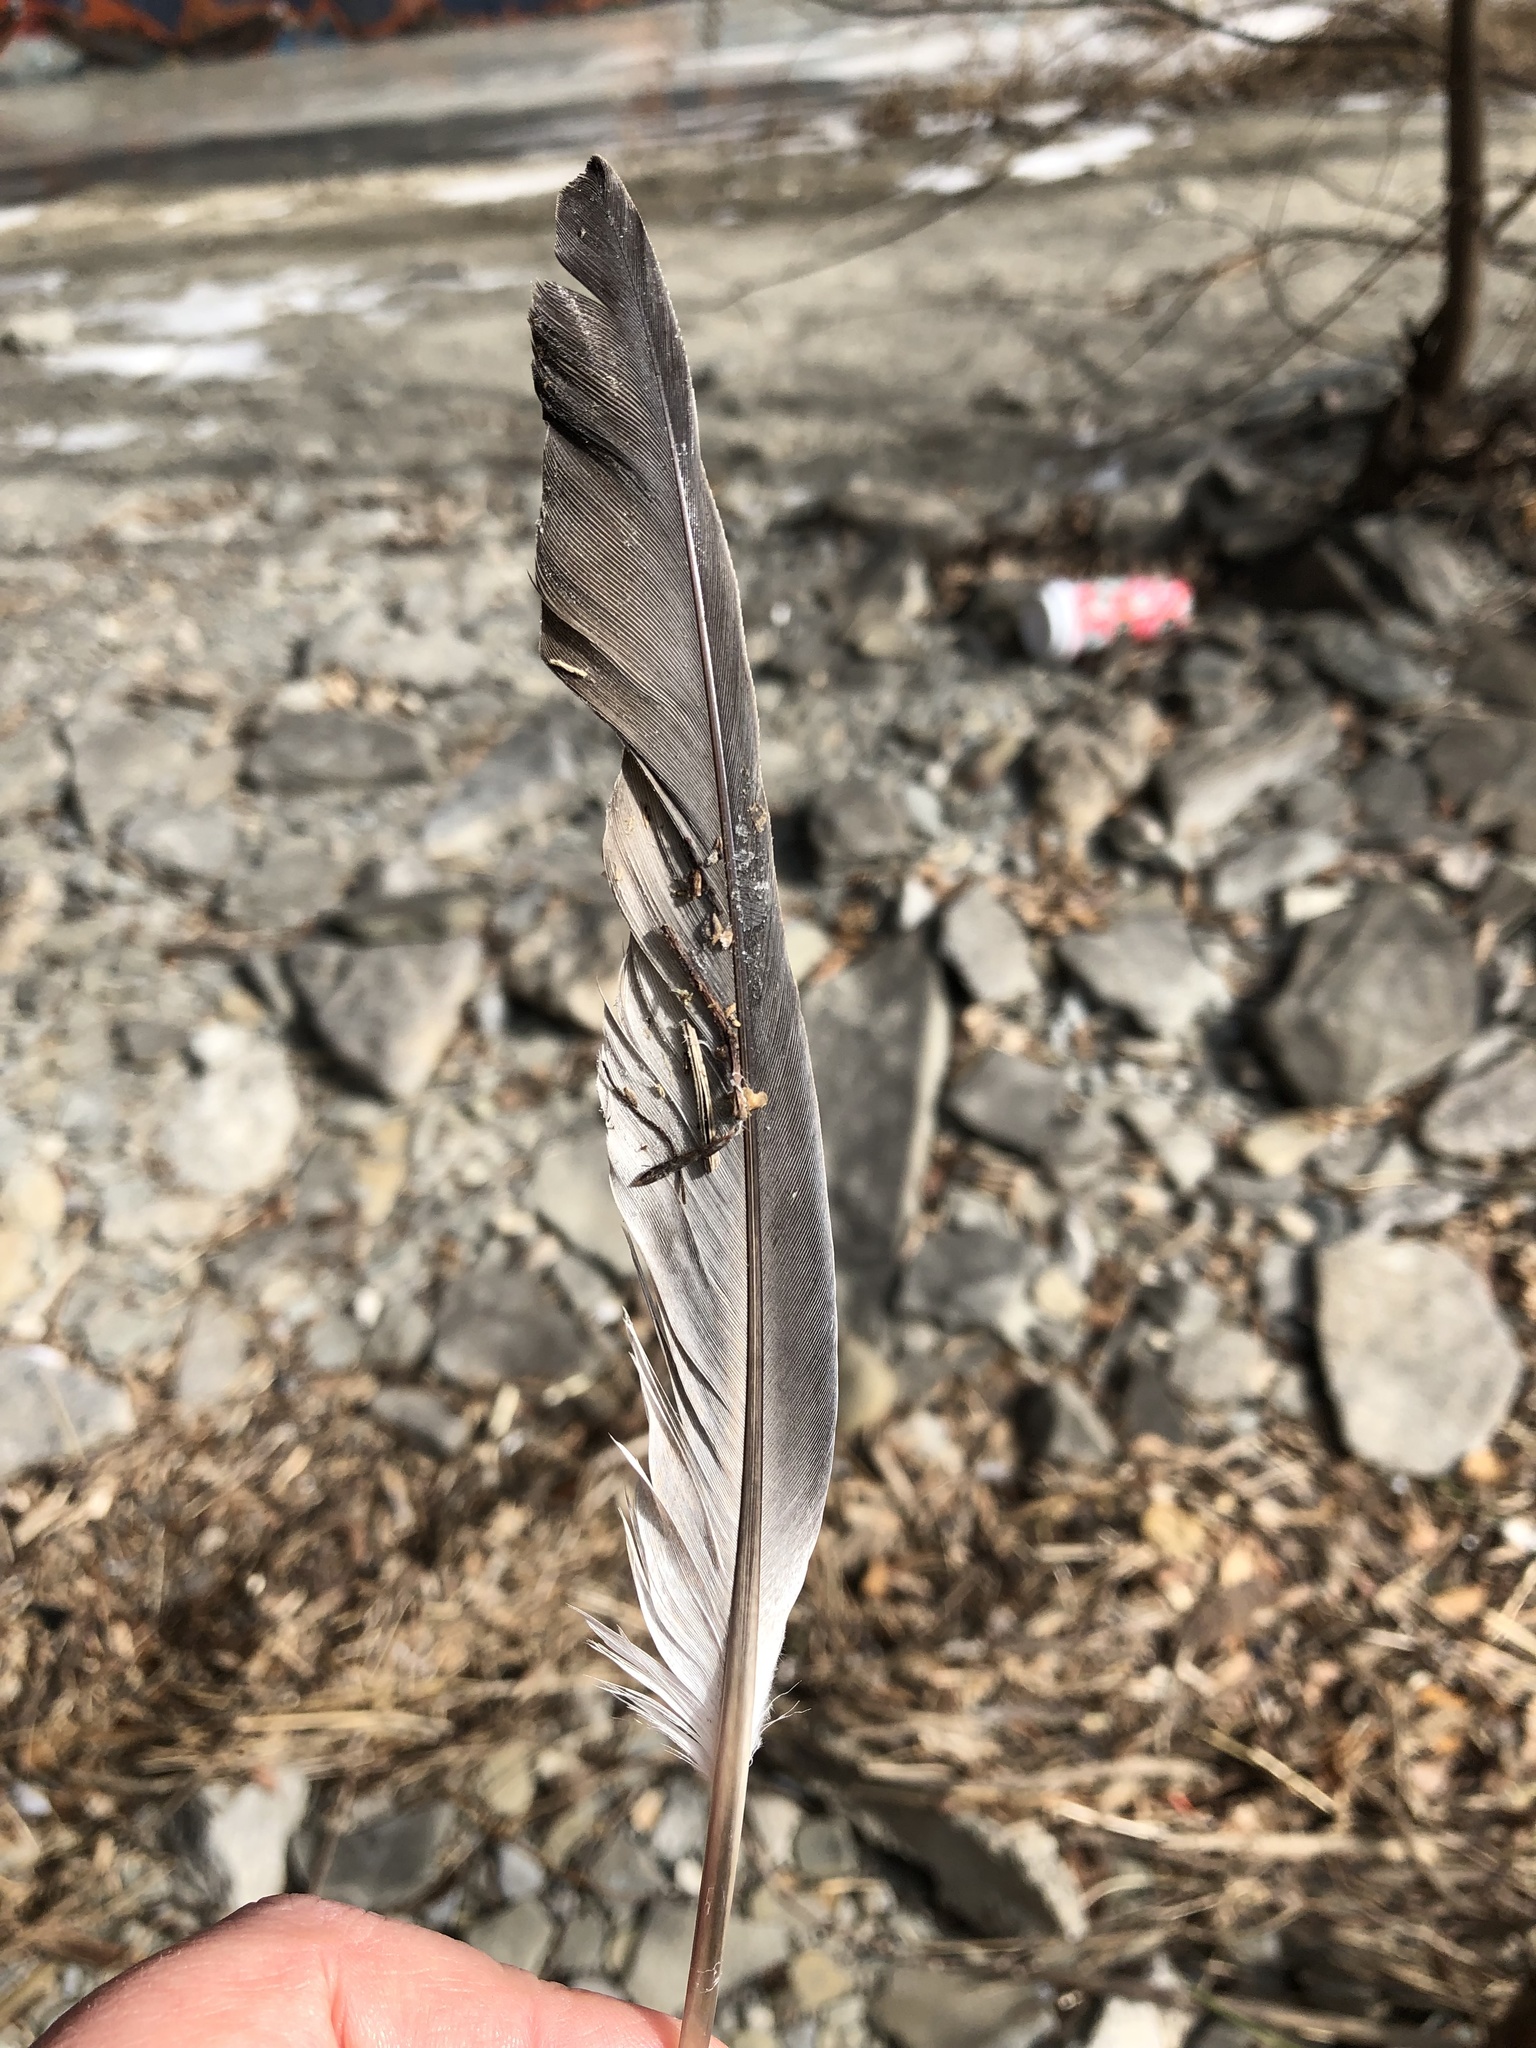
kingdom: Animalia
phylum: Chordata
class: Aves
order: Columbiformes
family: Columbidae
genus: Columba
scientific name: Columba livia
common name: Rock pigeon
